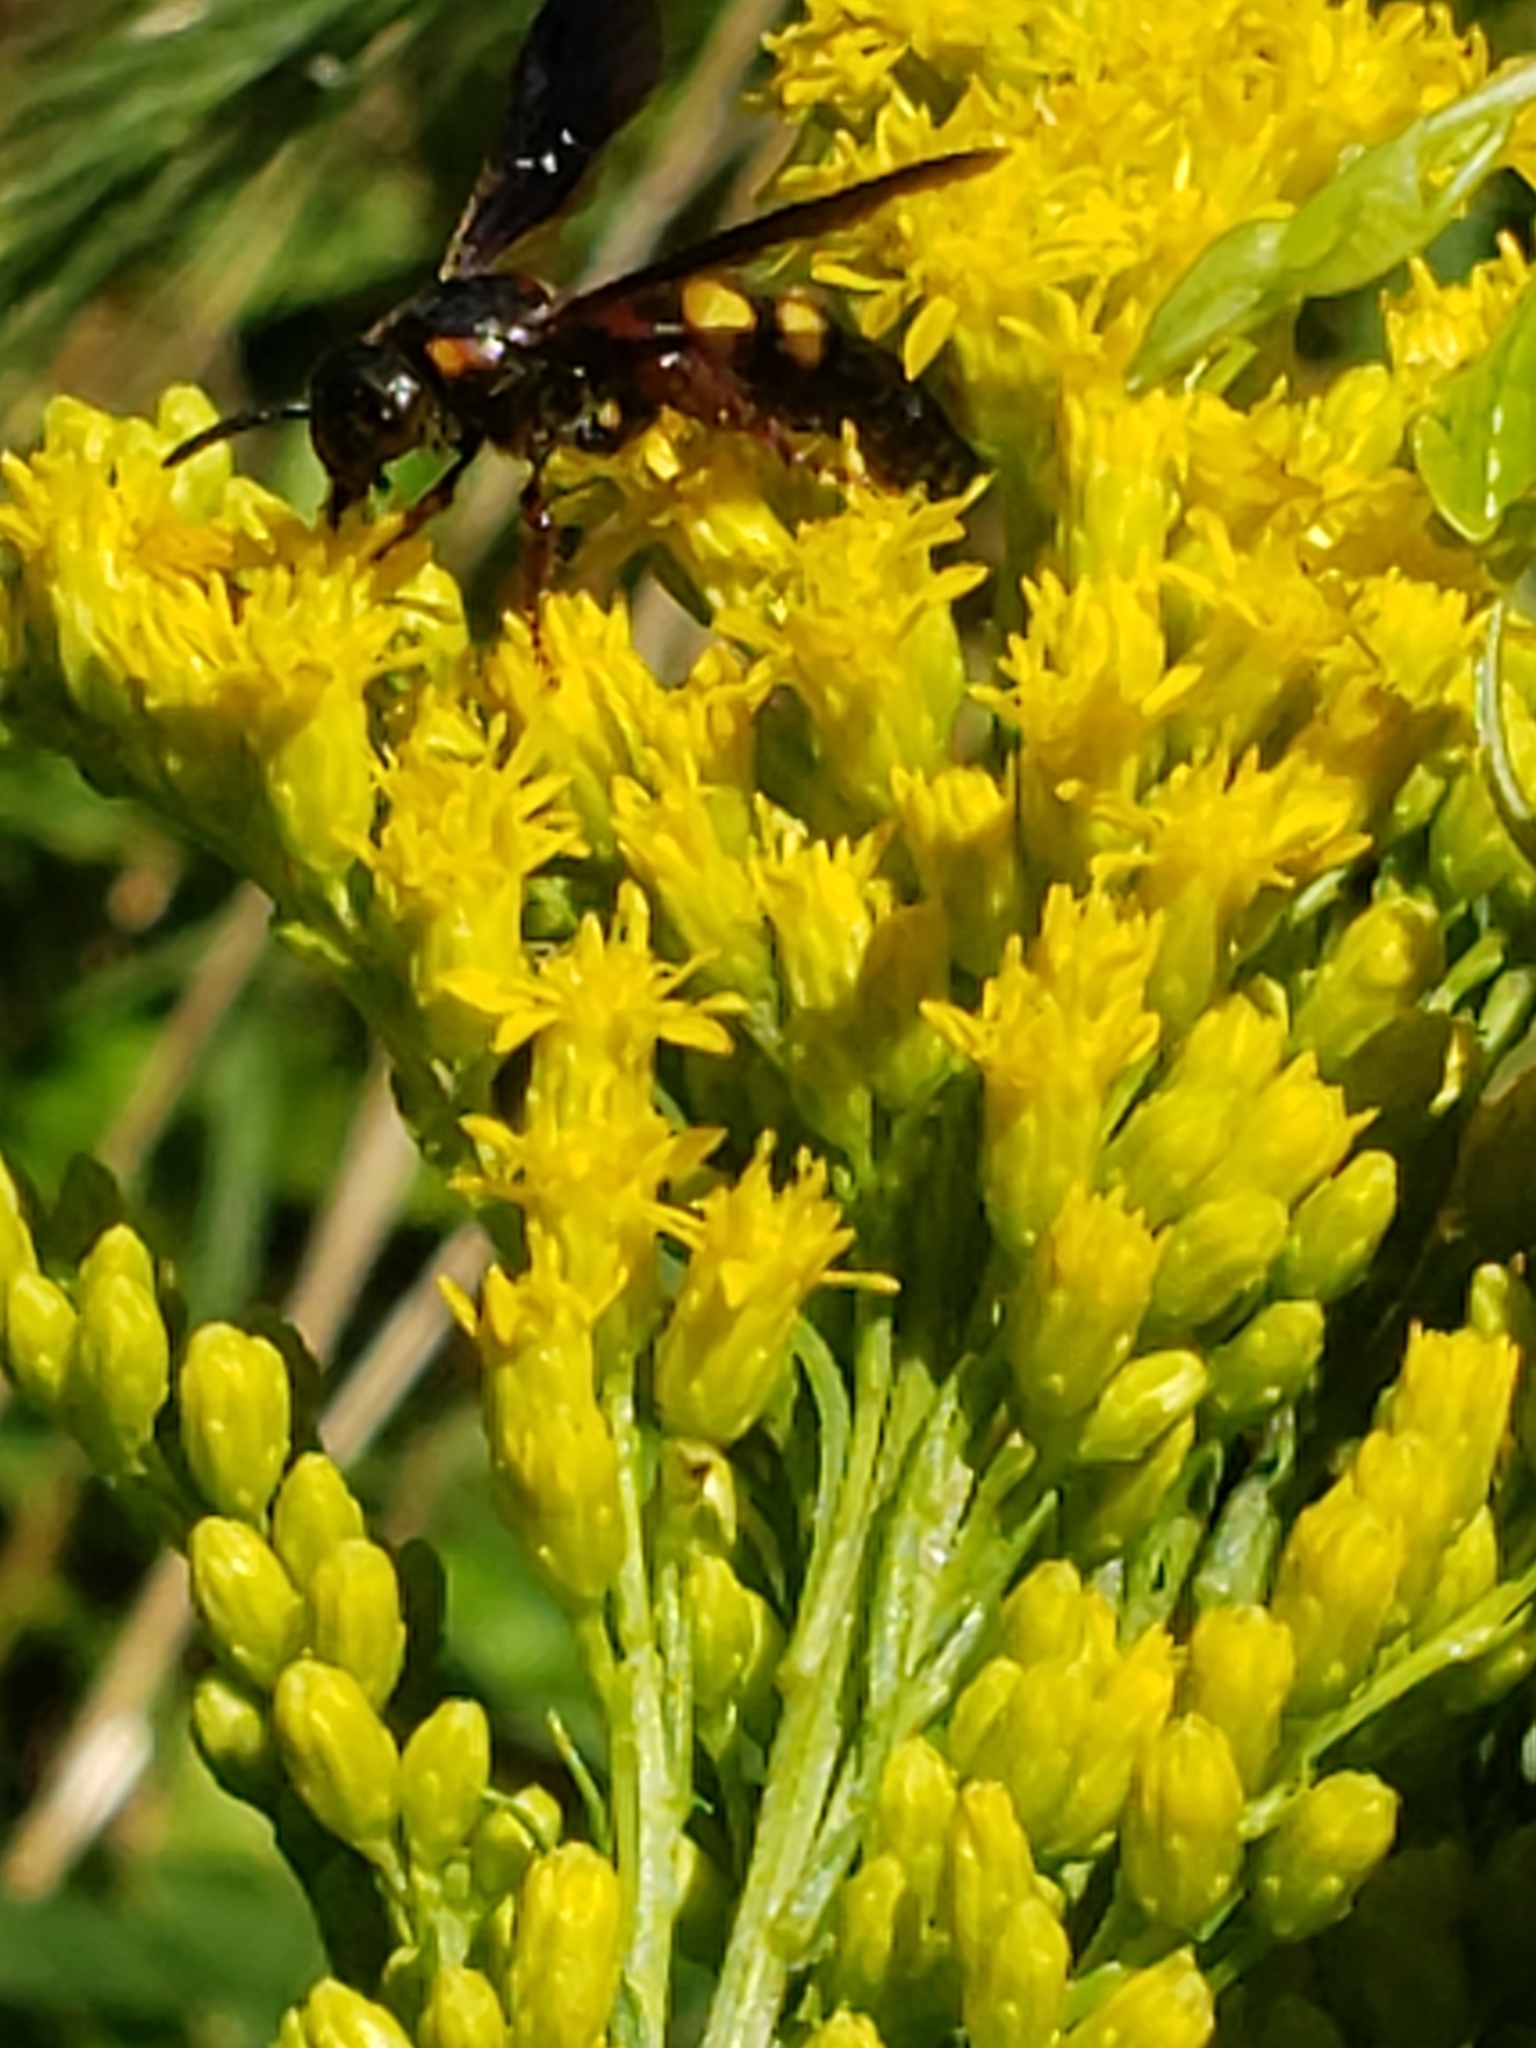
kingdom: Animalia
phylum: Arthropoda
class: Insecta
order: Hymenoptera
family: Scoliidae
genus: Scolia
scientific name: Scolia nobilitata
